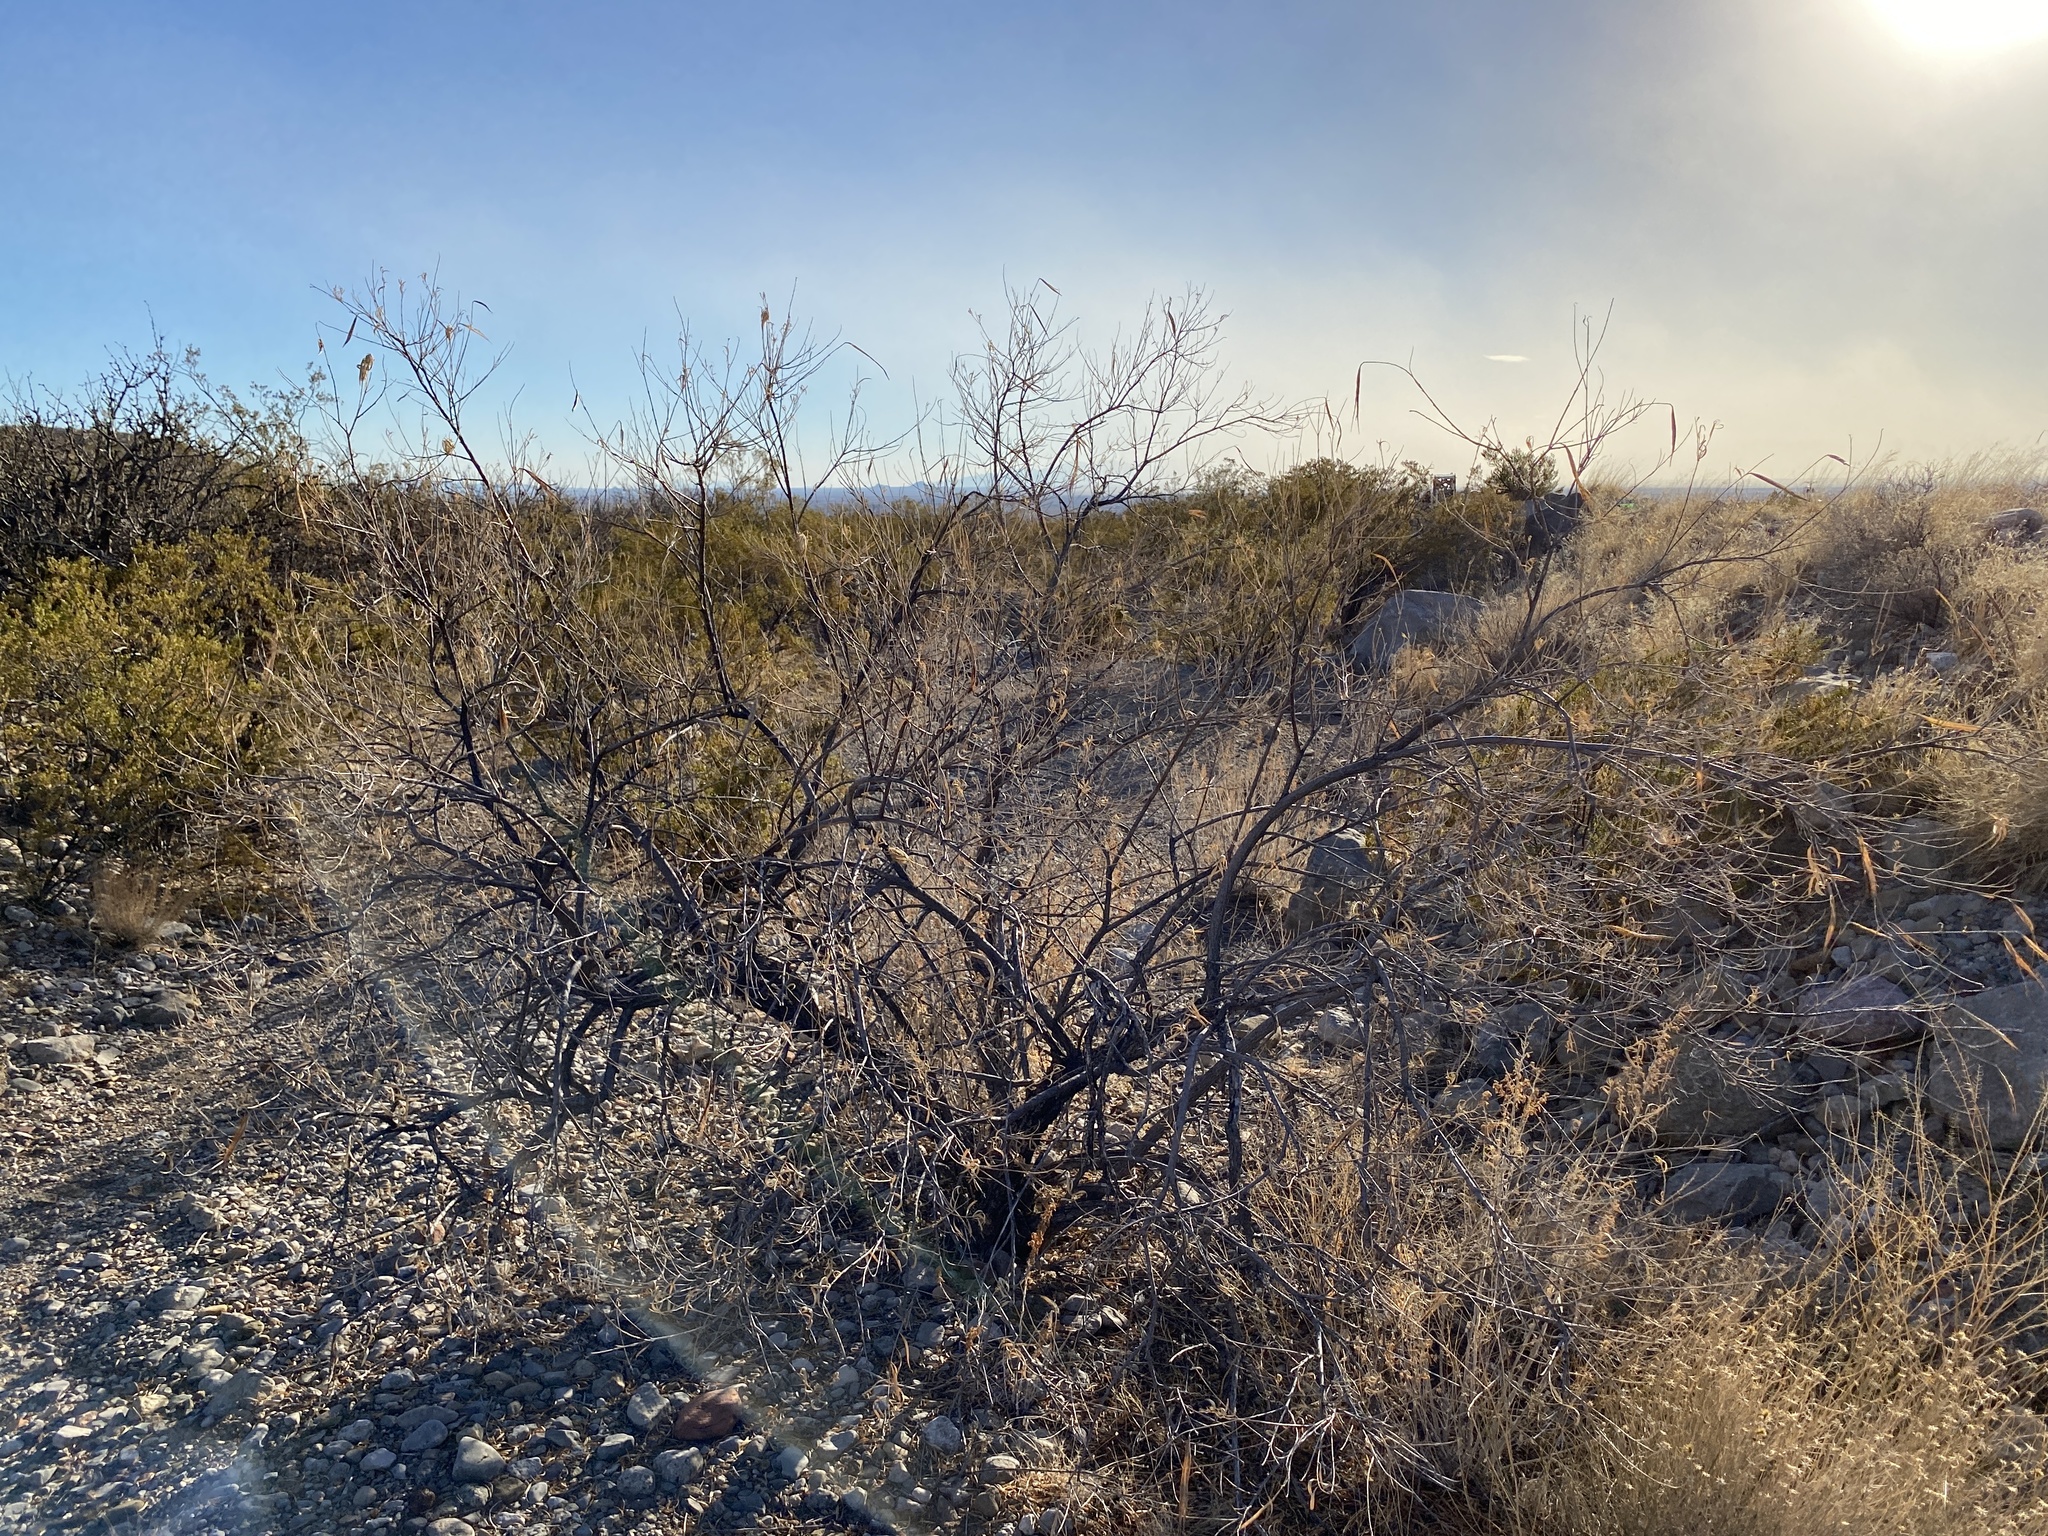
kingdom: Plantae
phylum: Tracheophyta
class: Magnoliopsida
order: Lamiales
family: Bignoniaceae
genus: Chilopsis
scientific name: Chilopsis linearis
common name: Desert-willow
